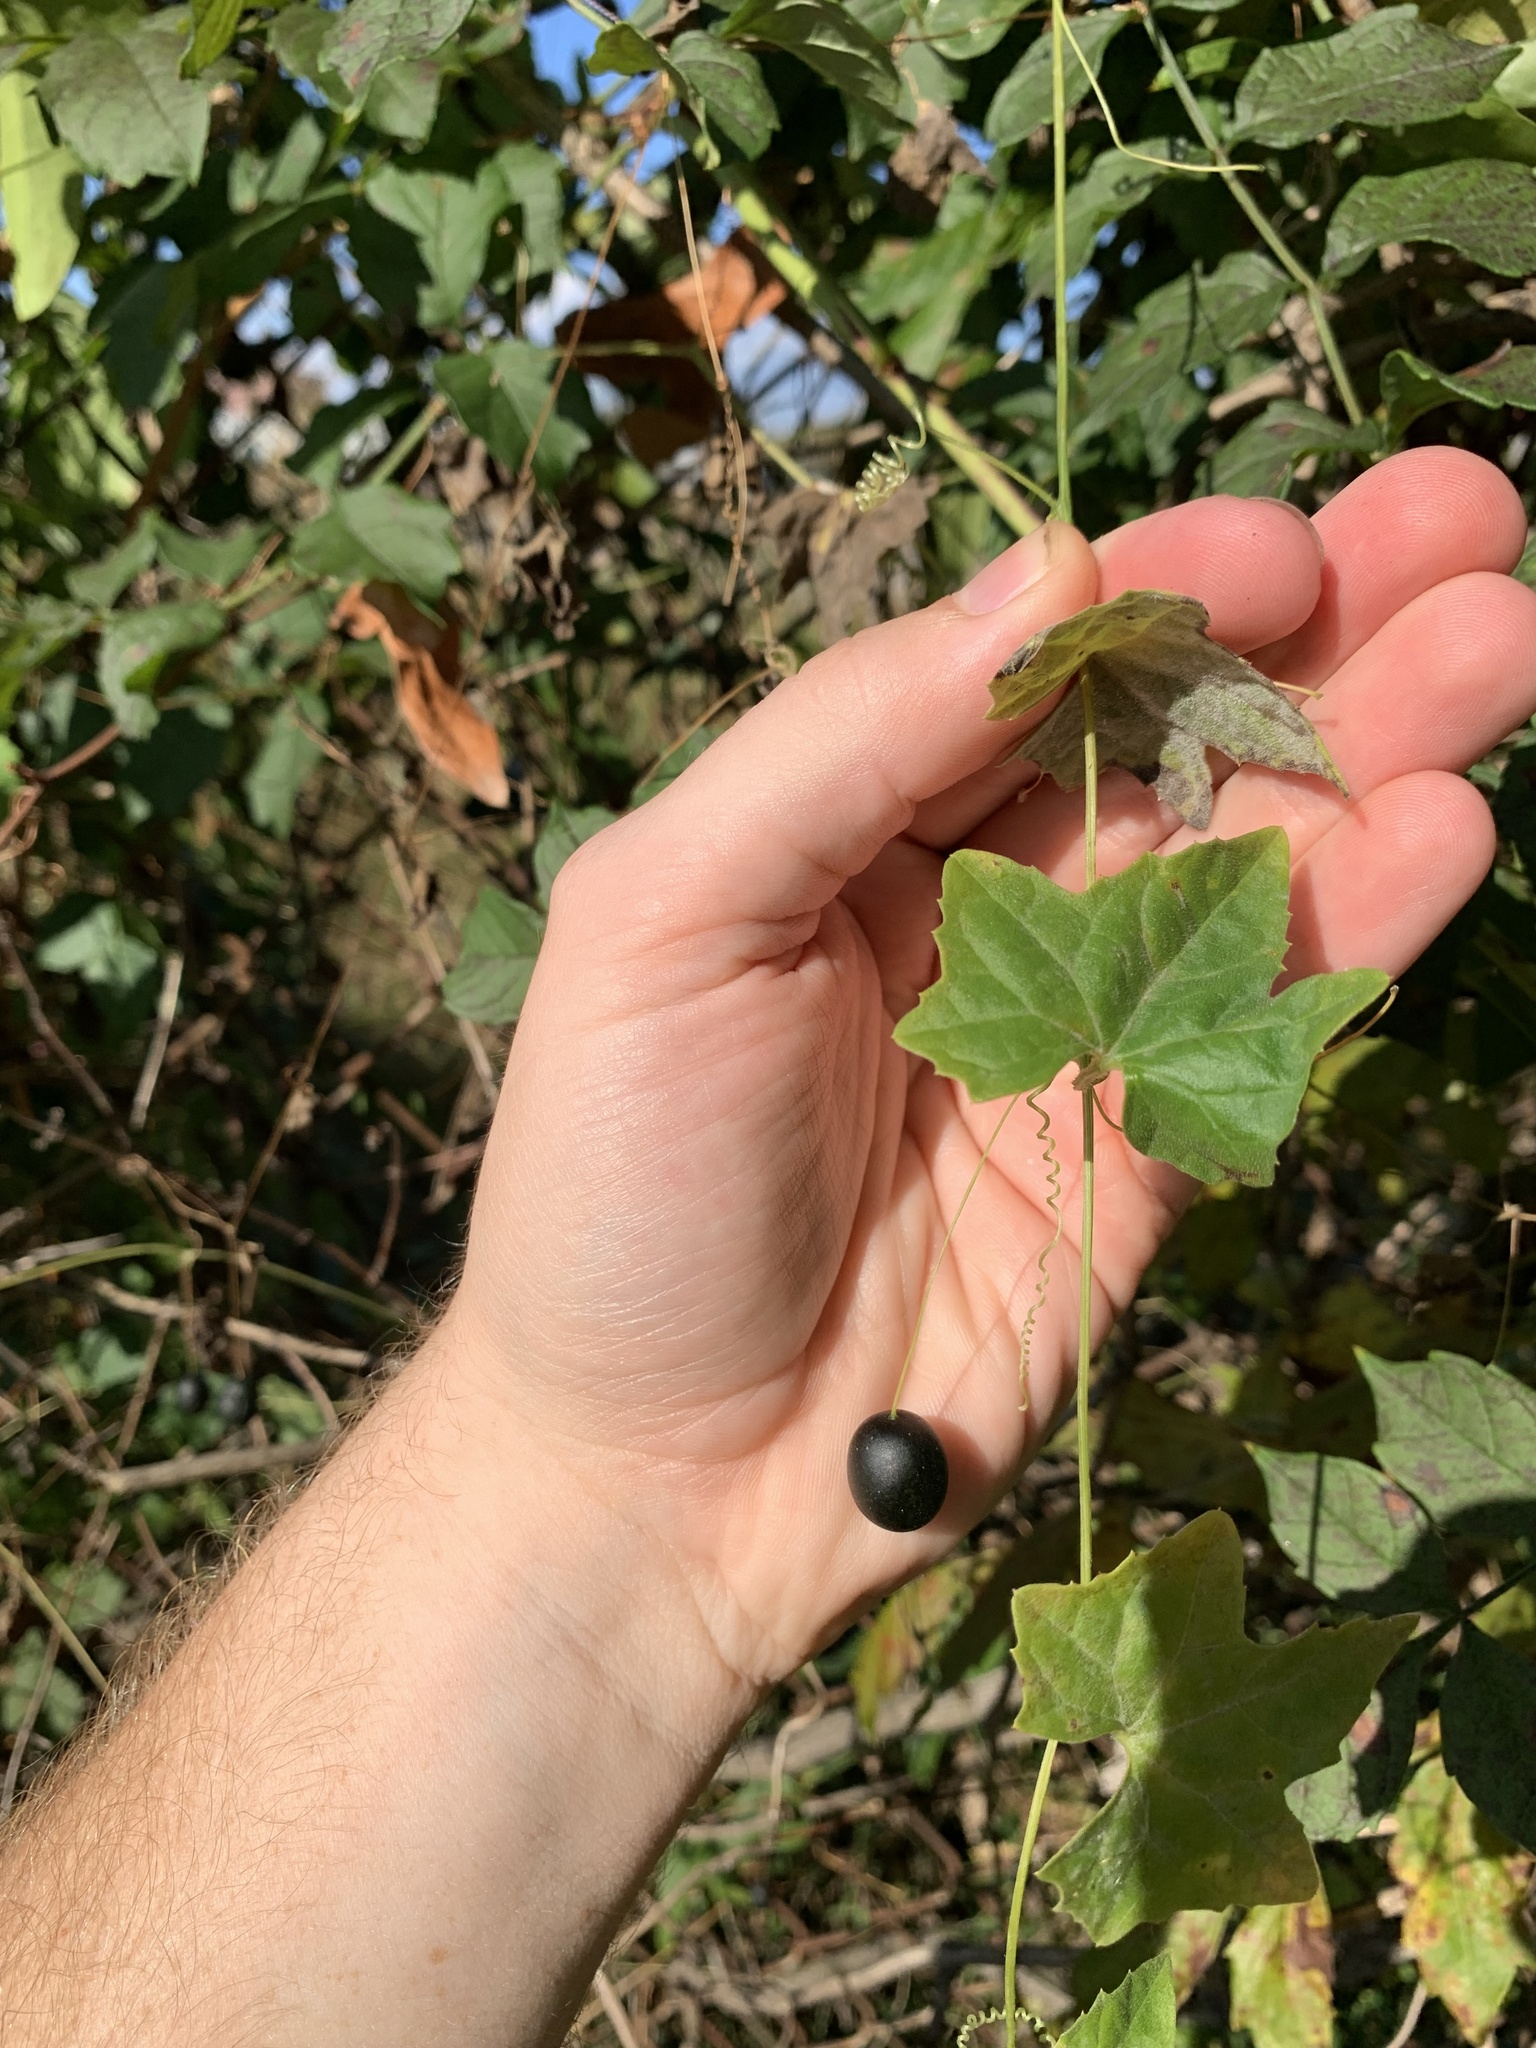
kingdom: Plantae
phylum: Tracheophyta
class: Magnoliopsida
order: Cucurbitales
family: Cucurbitaceae
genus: Melothria
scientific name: Melothria pendula
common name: Creeping-cucumber
